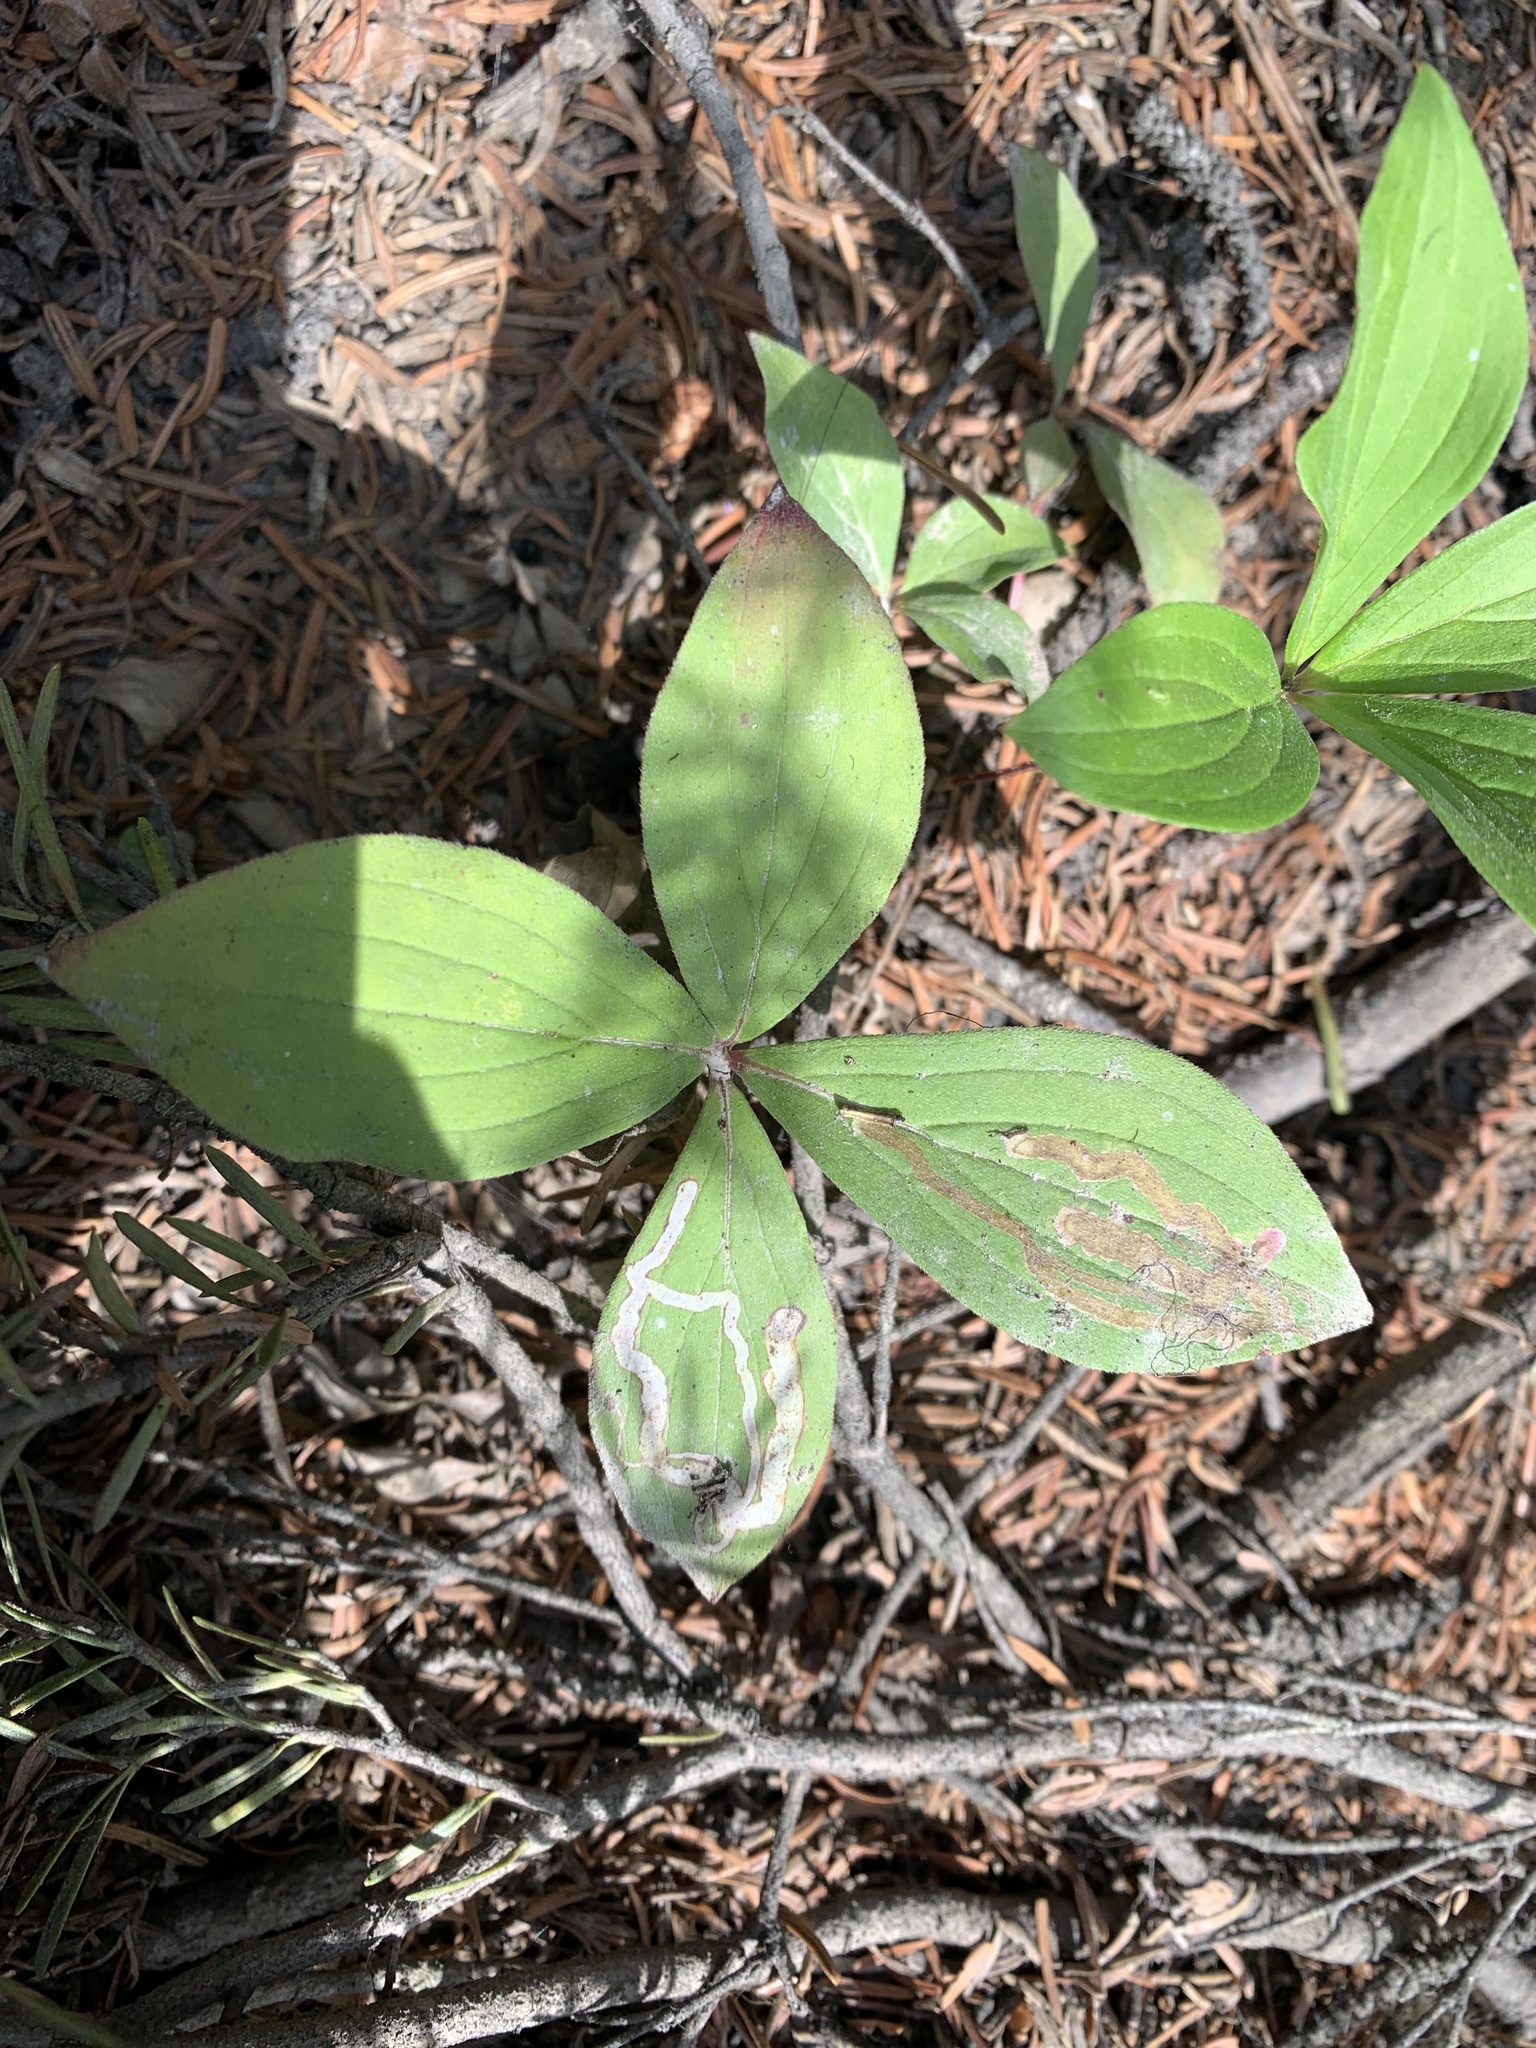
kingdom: Animalia
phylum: Arthropoda
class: Insecta
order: Diptera
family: Agromyzidae
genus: Phytomyza
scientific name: Phytomyza agromyzina
